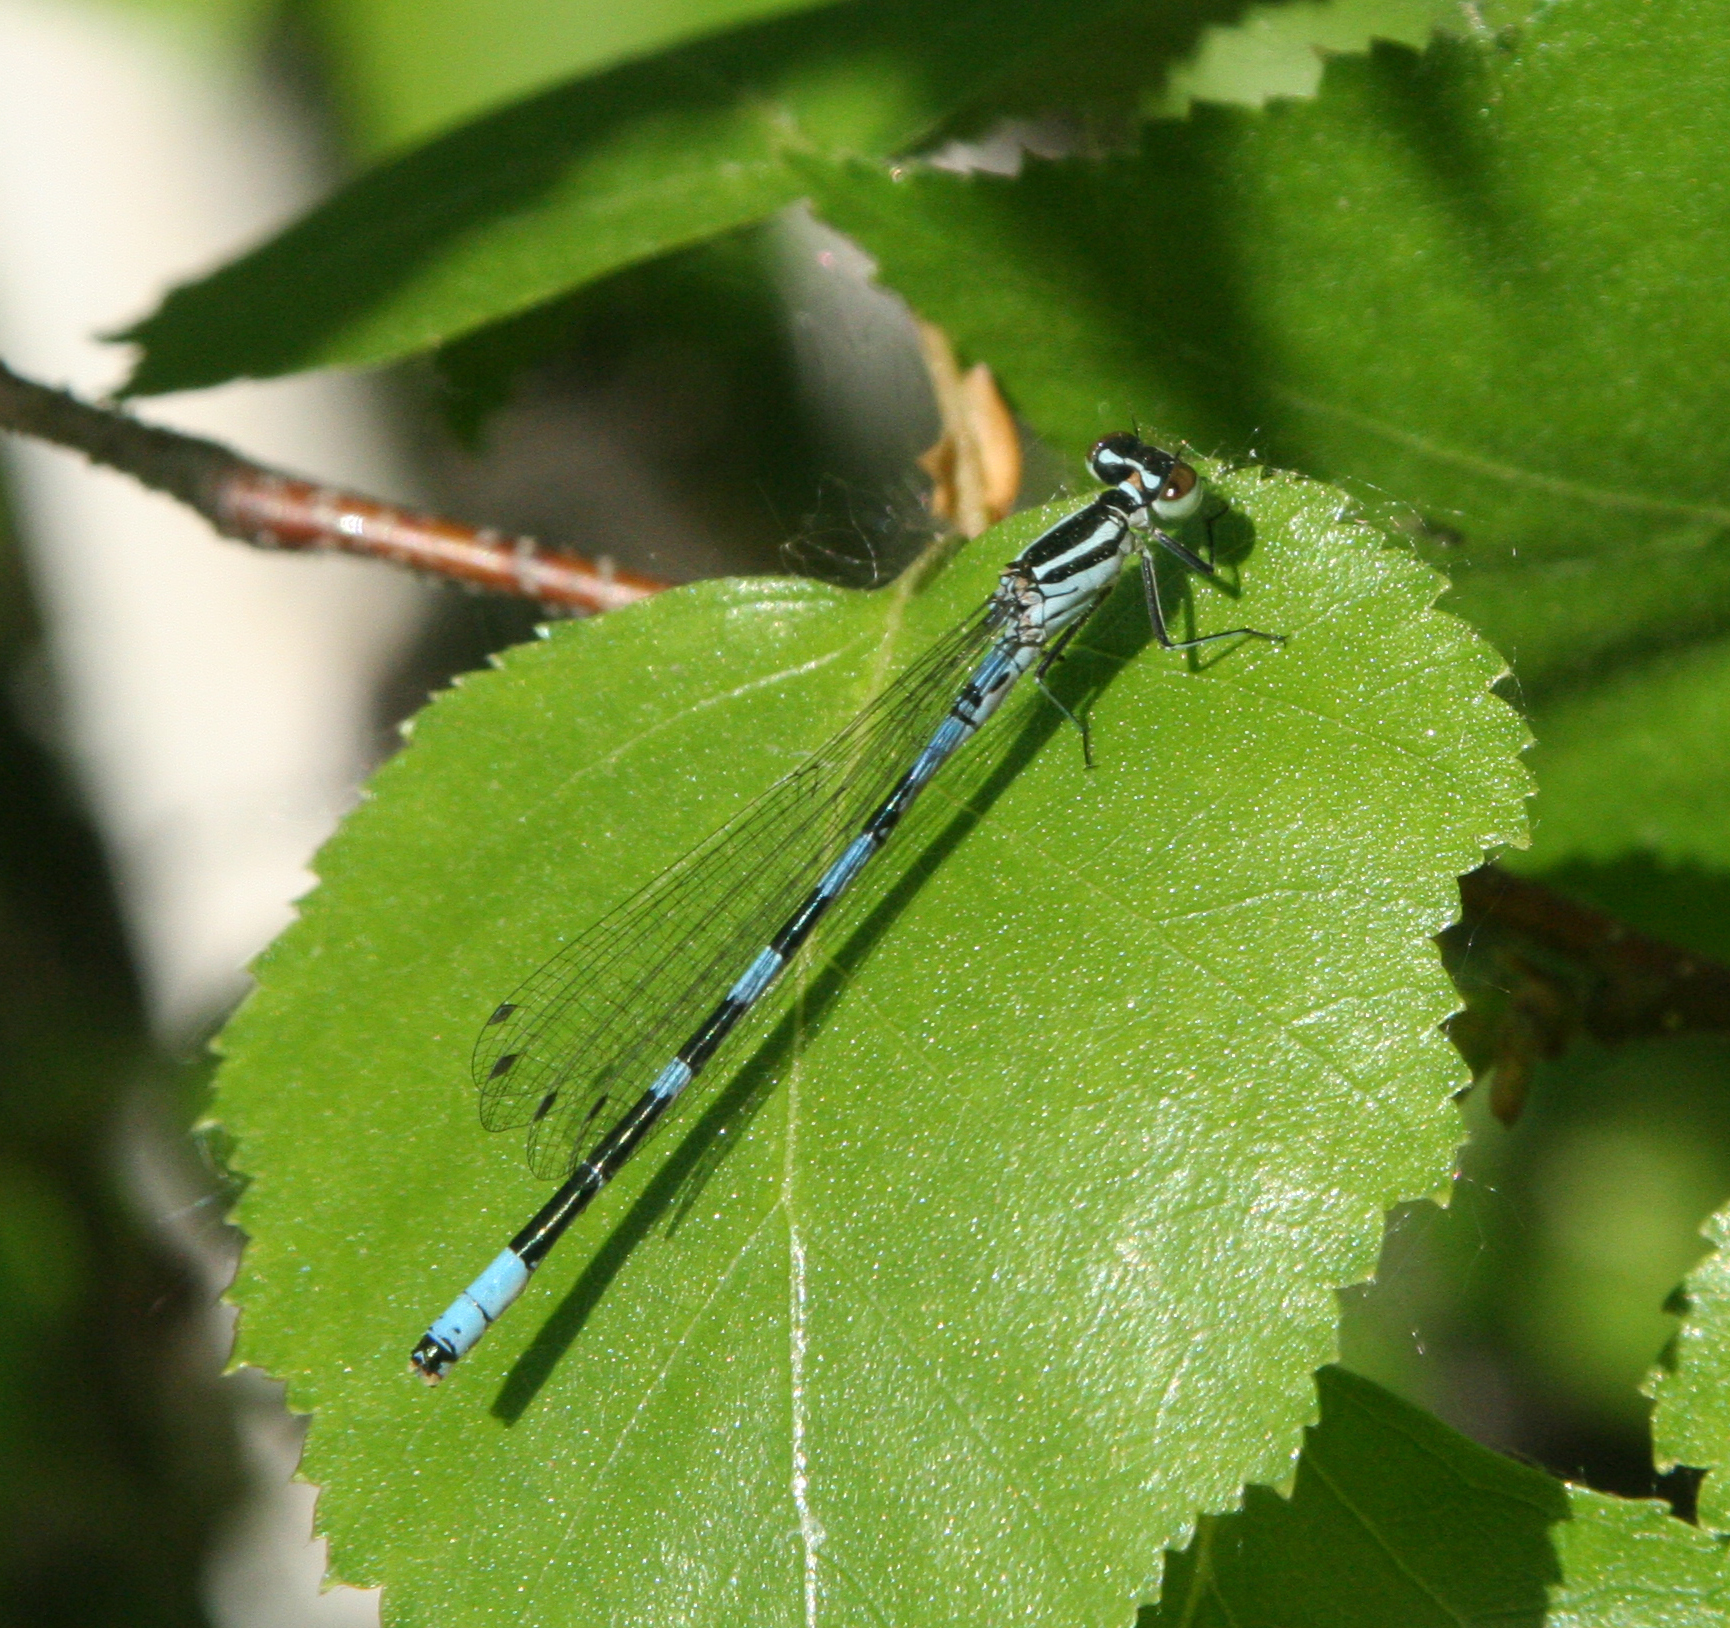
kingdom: Animalia
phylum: Arthropoda
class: Insecta
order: Odonata
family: Coenagrionidae
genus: Coenagrion
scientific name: Coenagrion hastulatum
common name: Spearhead bluet
